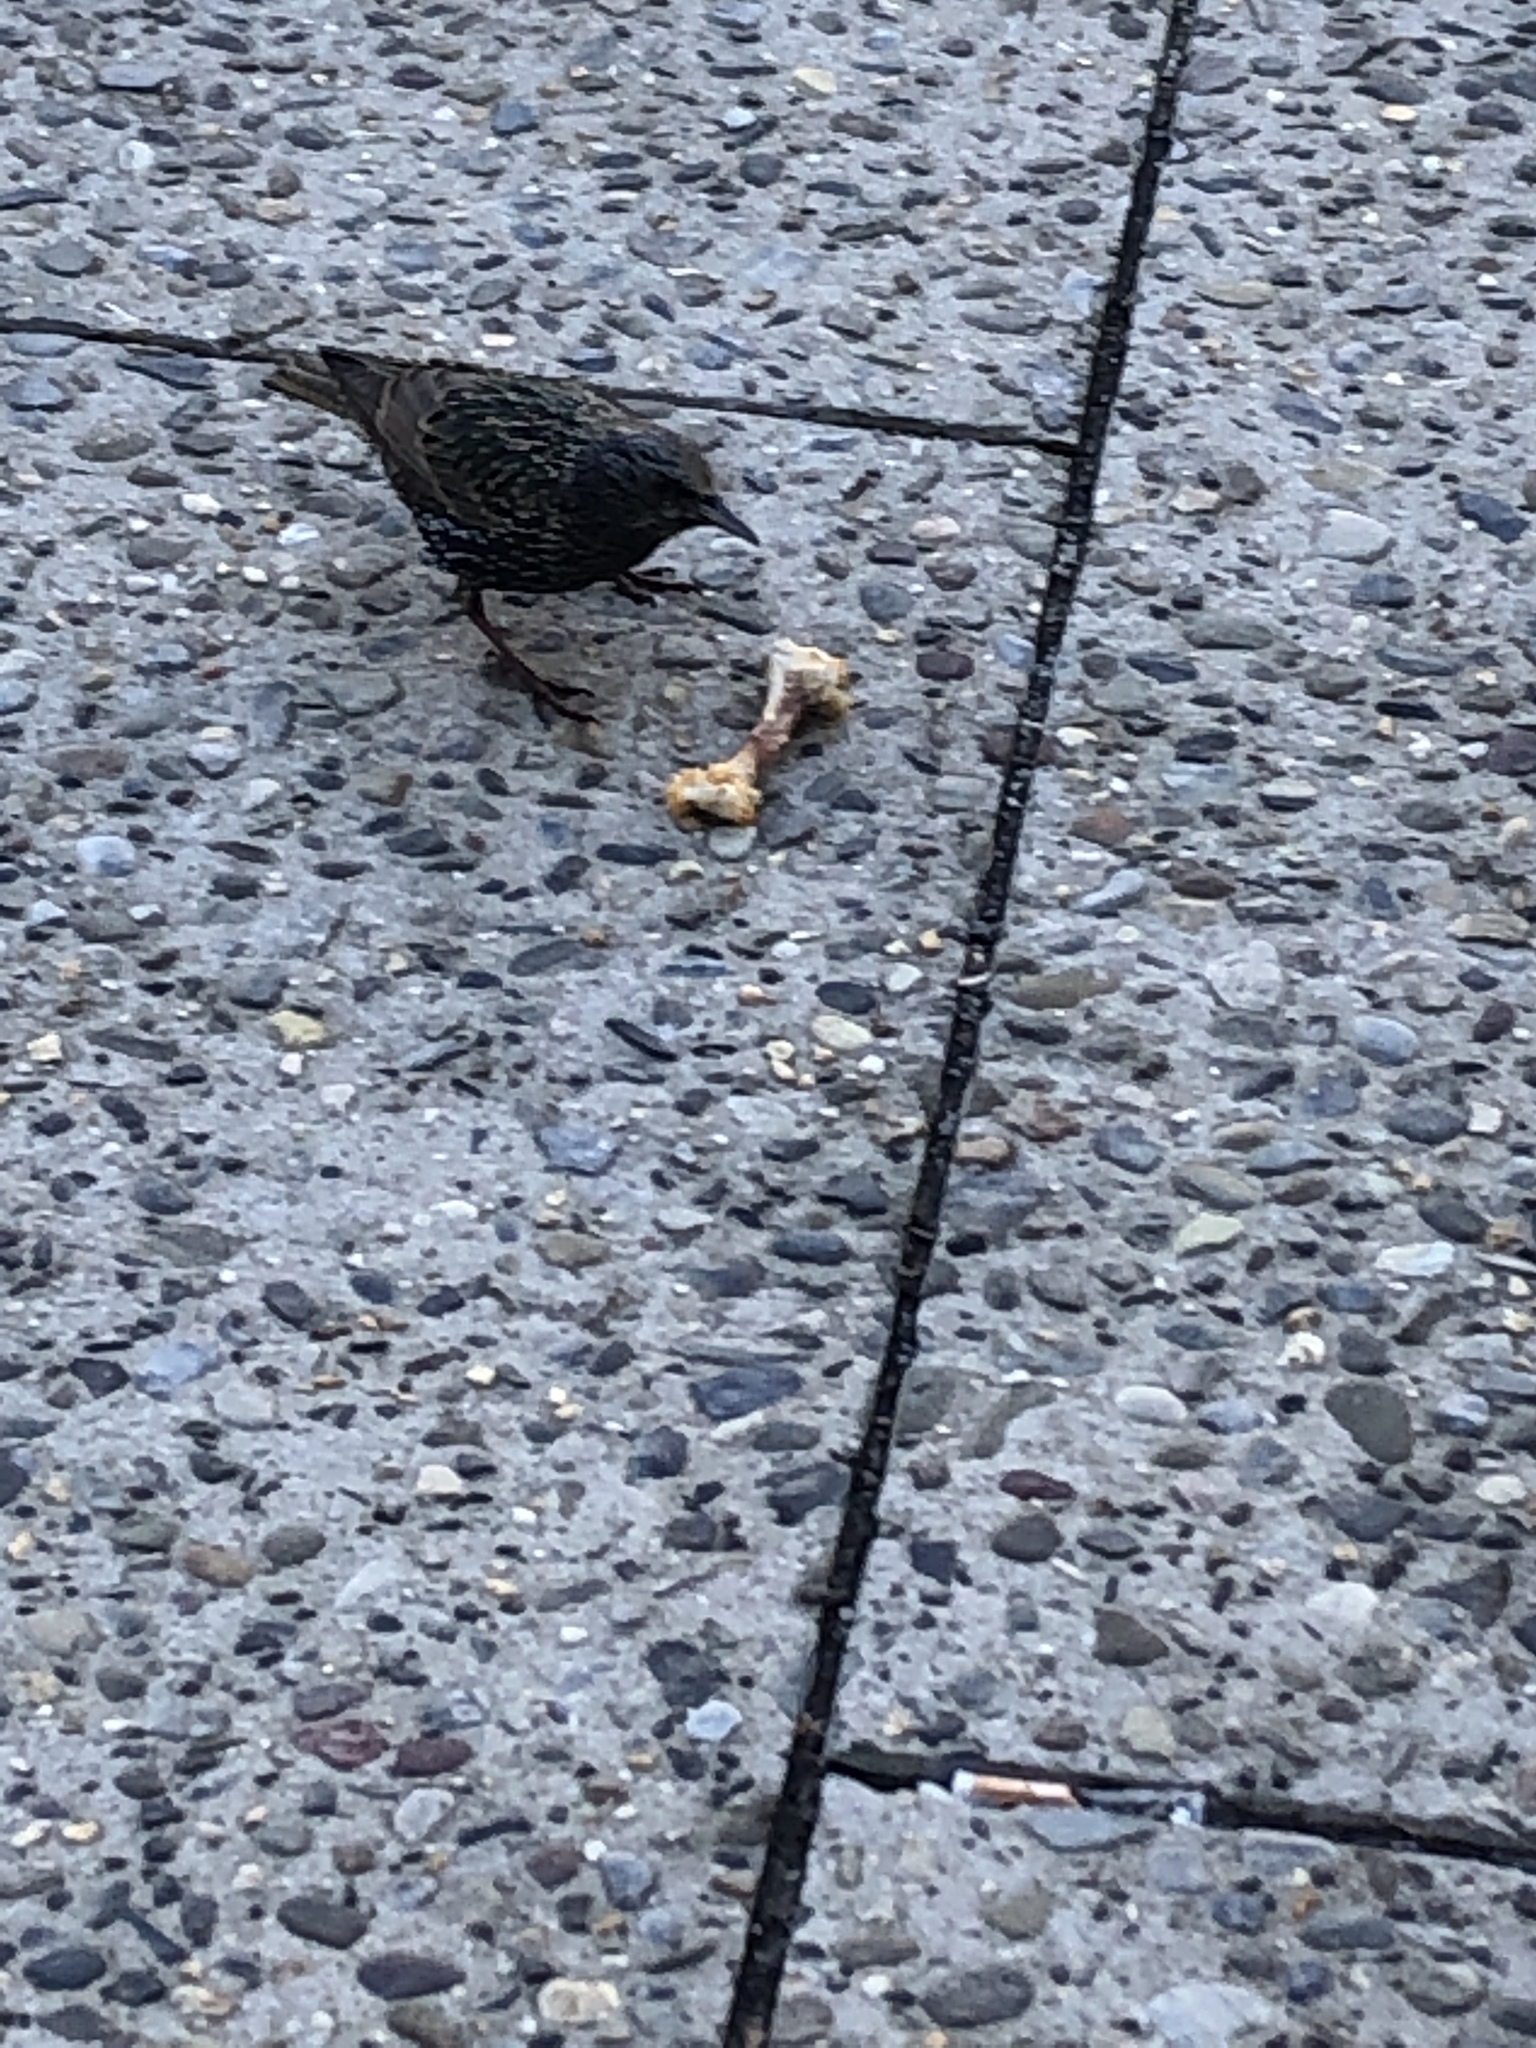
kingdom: Animalia
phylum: Chordata
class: Aves
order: Passeriformes
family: Sturnidae
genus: Sturnus
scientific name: Sturnus vulgaris
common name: Common starling
